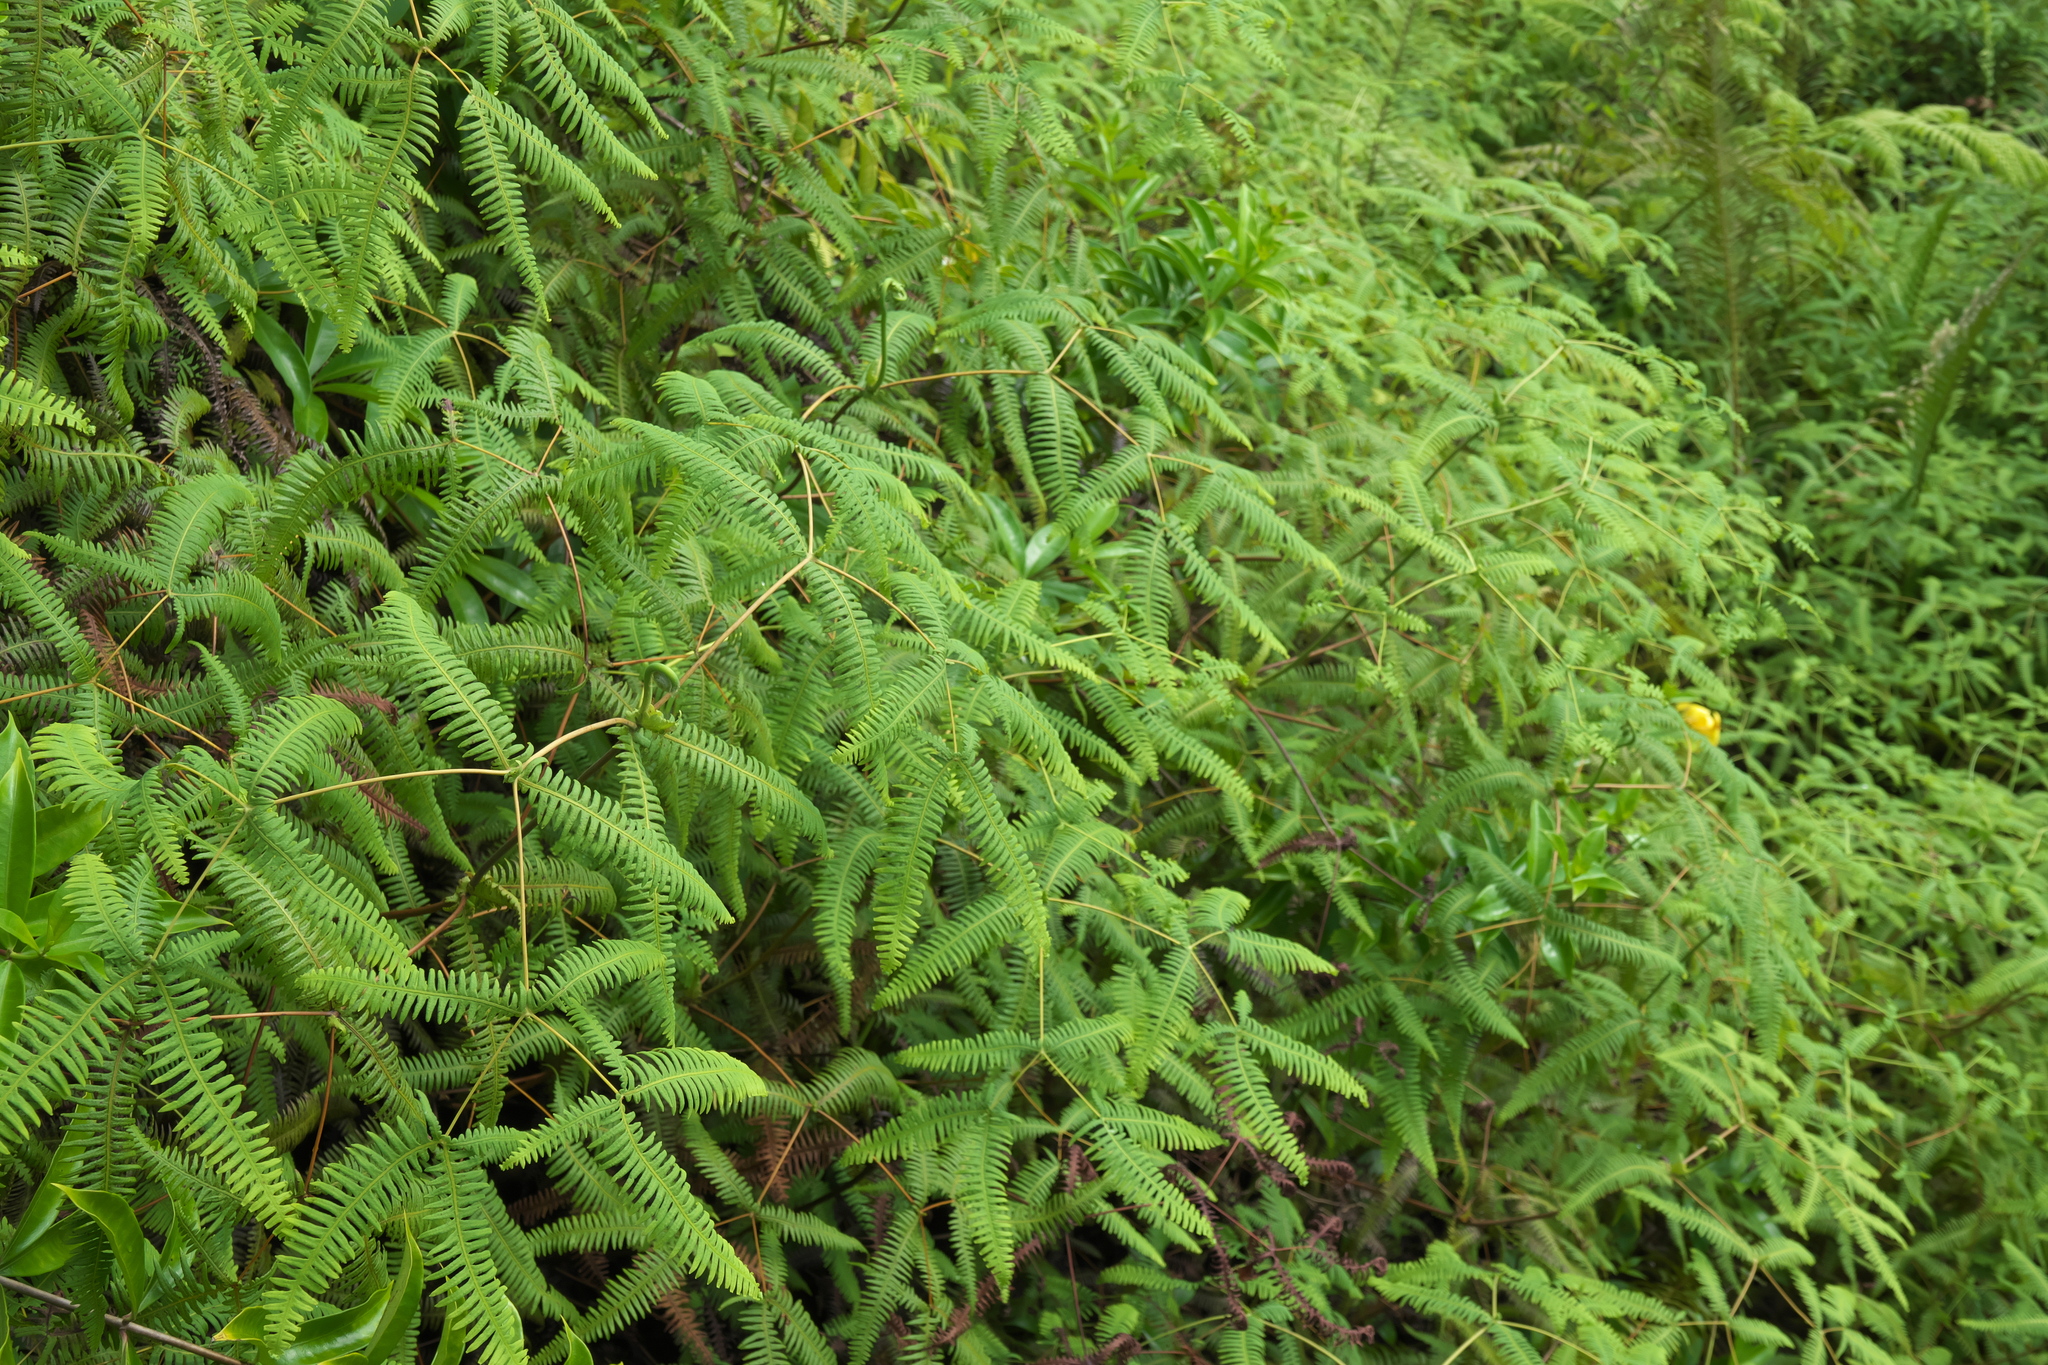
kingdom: Plantae
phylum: Tracheophyta
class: Polypodiopsida
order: Gleicheniales
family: Gleicheniaceae
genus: Dicranopteris
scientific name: Dicranopteris linearis
